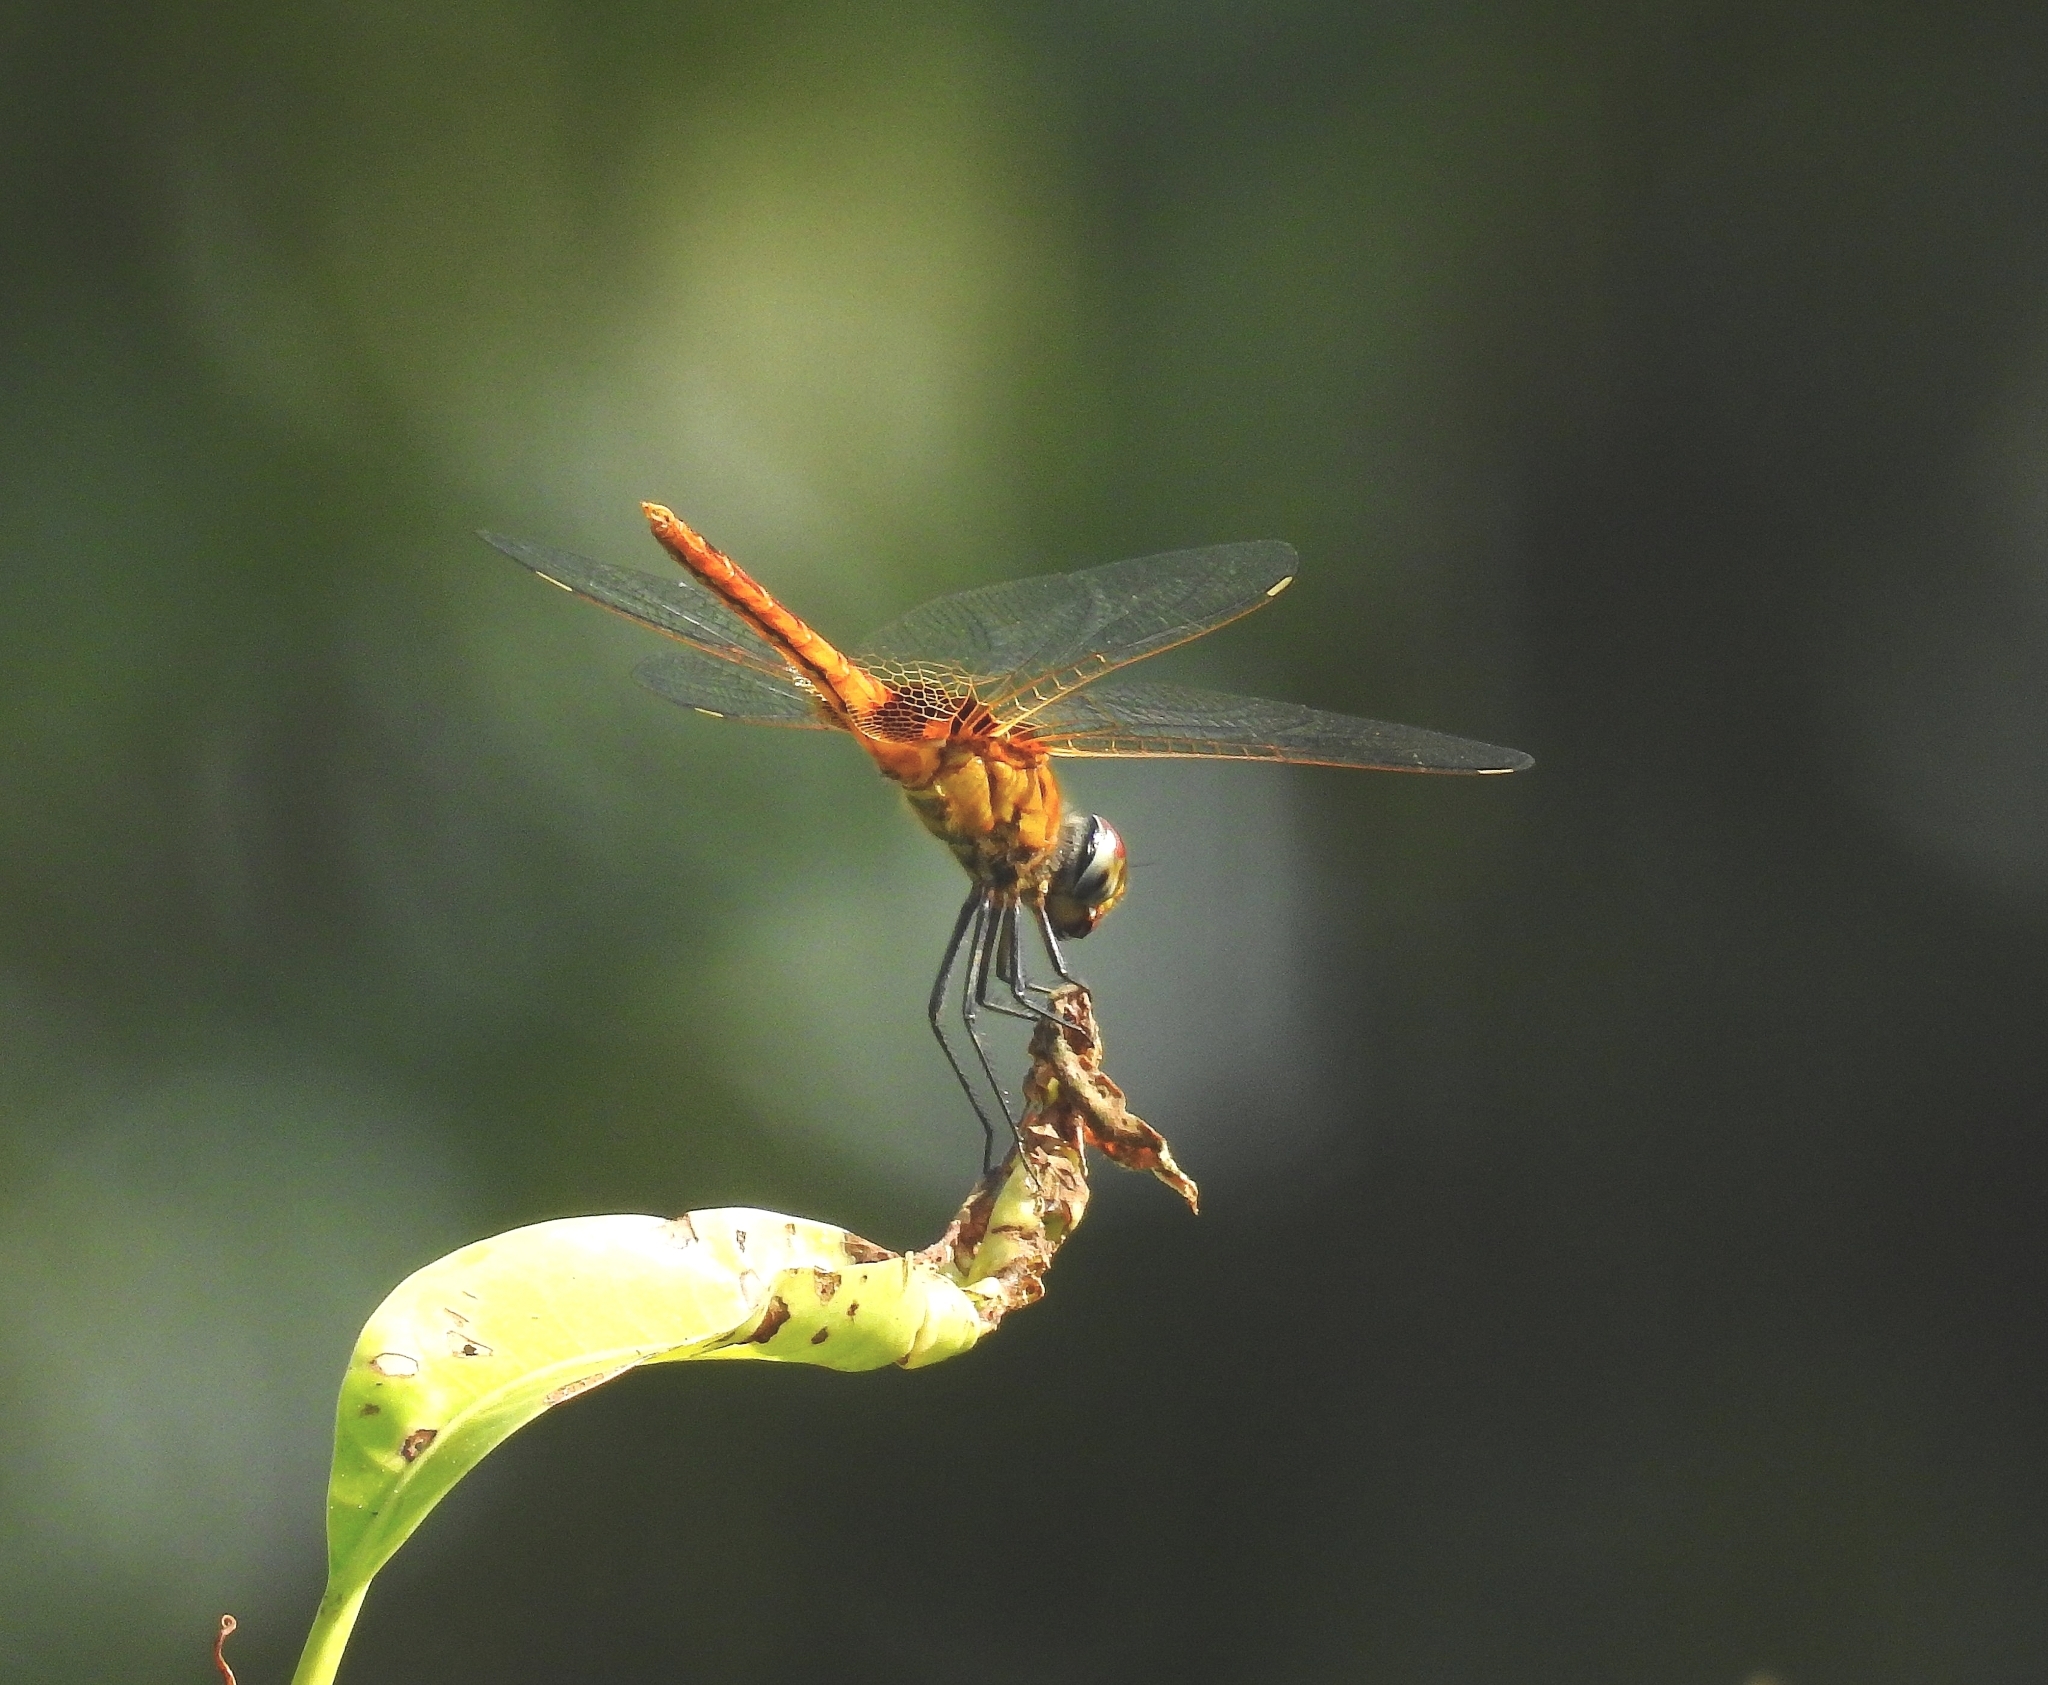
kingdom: Animalia
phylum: Arthropoda
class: Insecta
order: Odonata
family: Libellulidae
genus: Urothemis
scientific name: Urothemis signata
